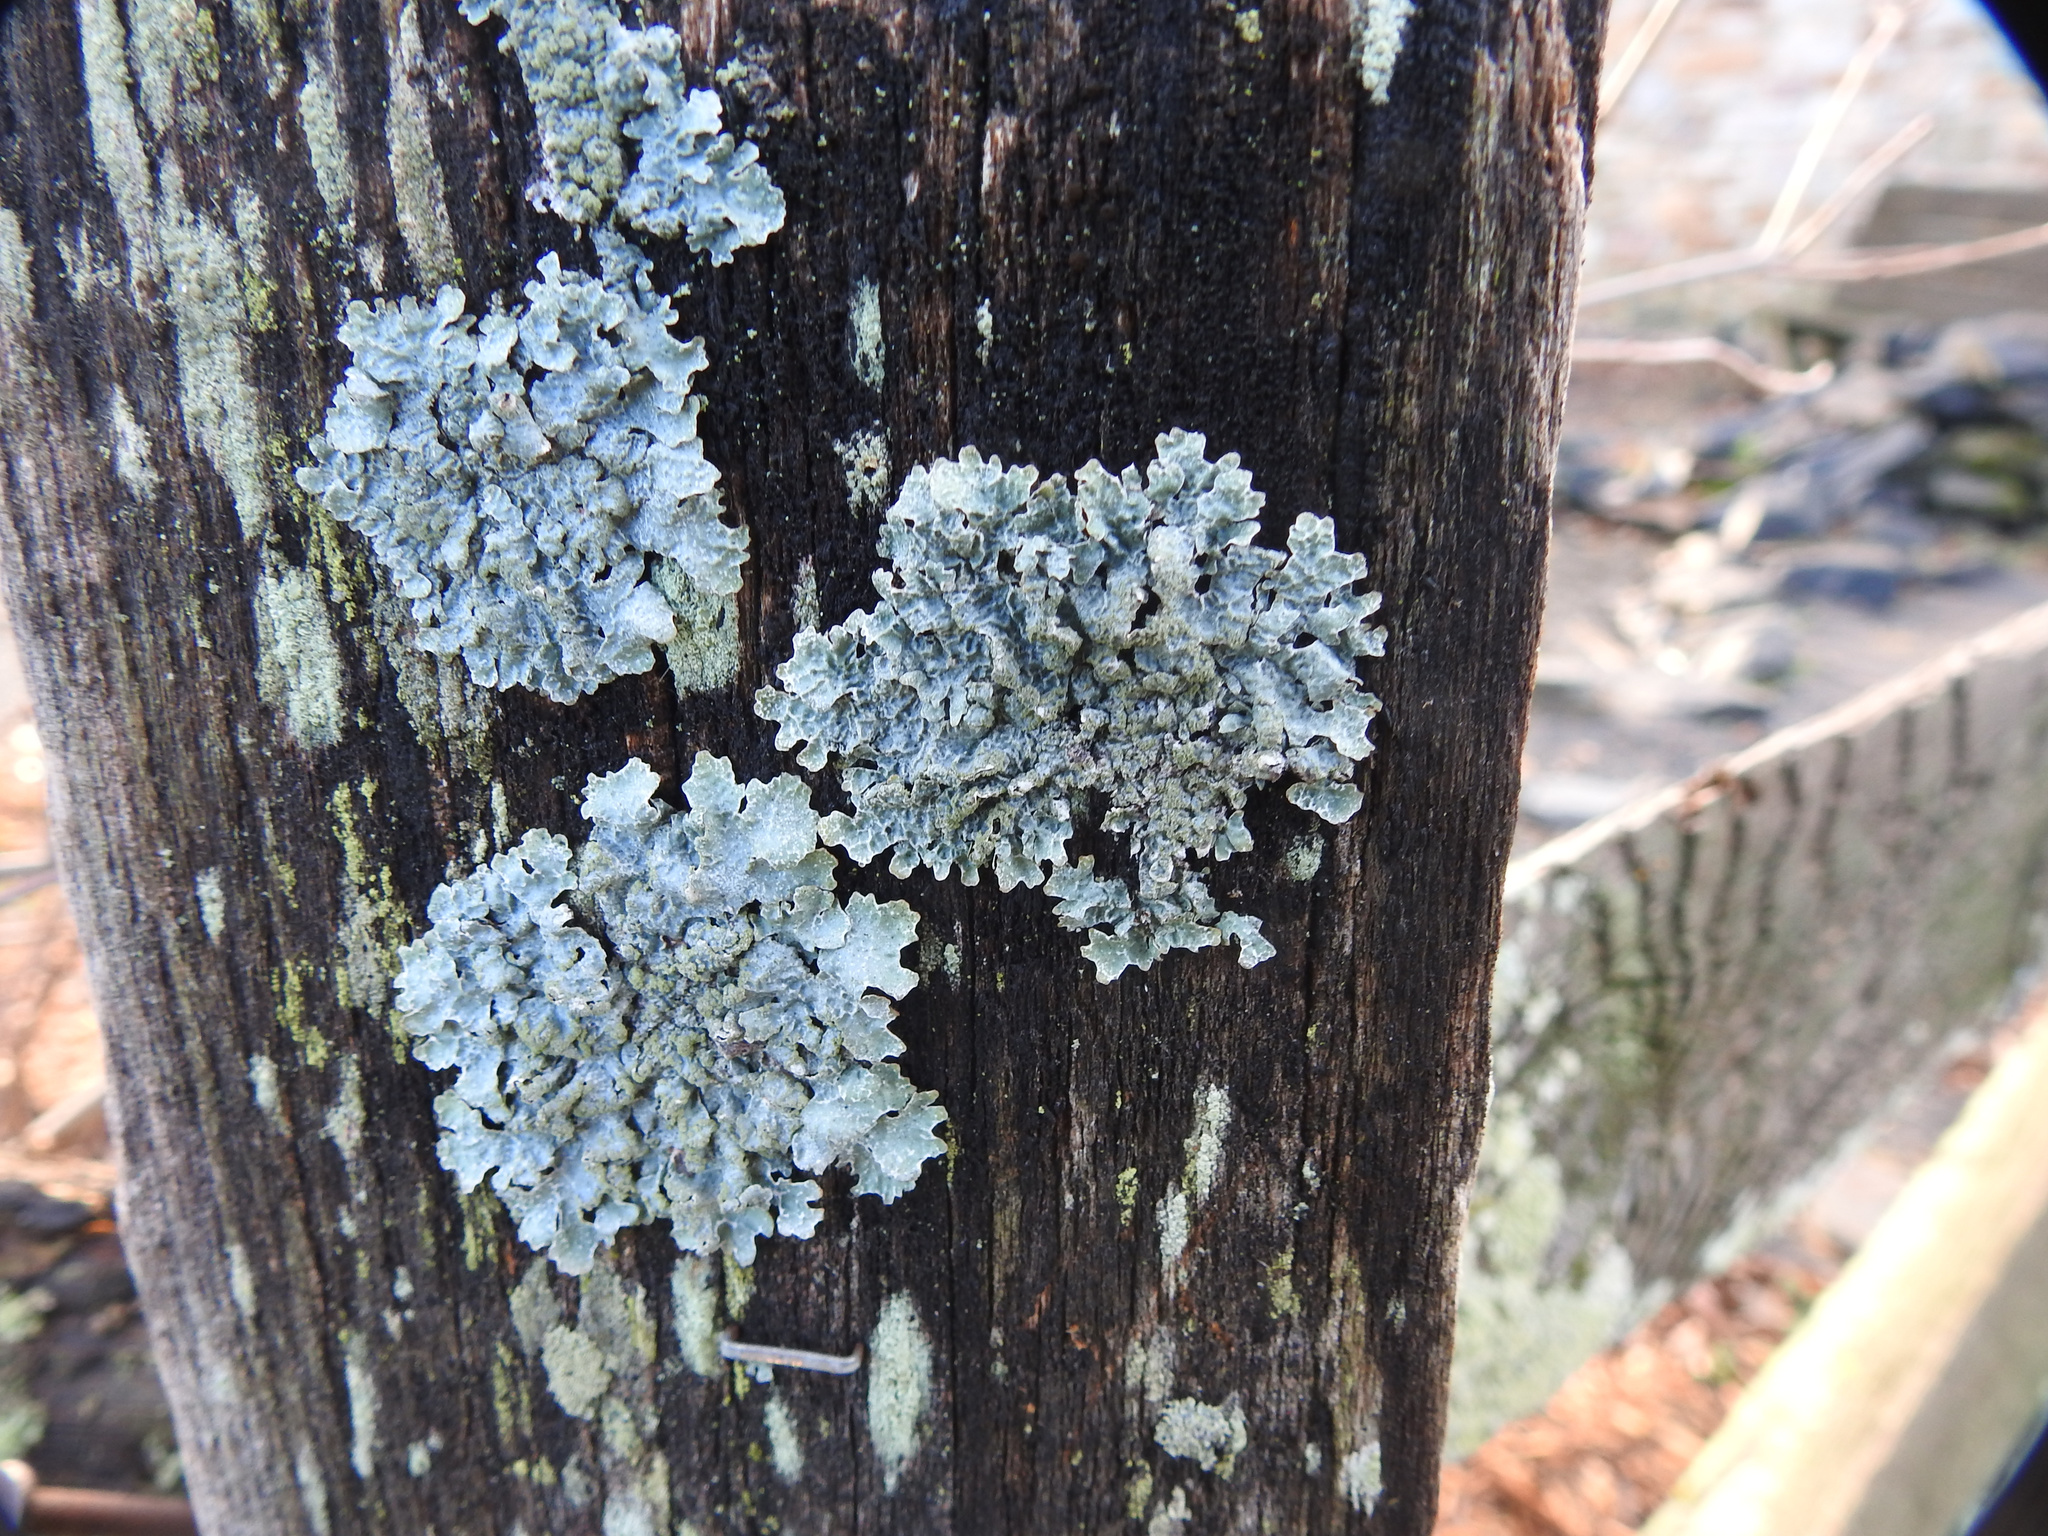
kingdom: Fungi
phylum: Ascomycota
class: Lecanoromycetes
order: Lecanorales
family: Parmeliaceae
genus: Parmelia
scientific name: Parmelia sulcata
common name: Netted shield lichen
